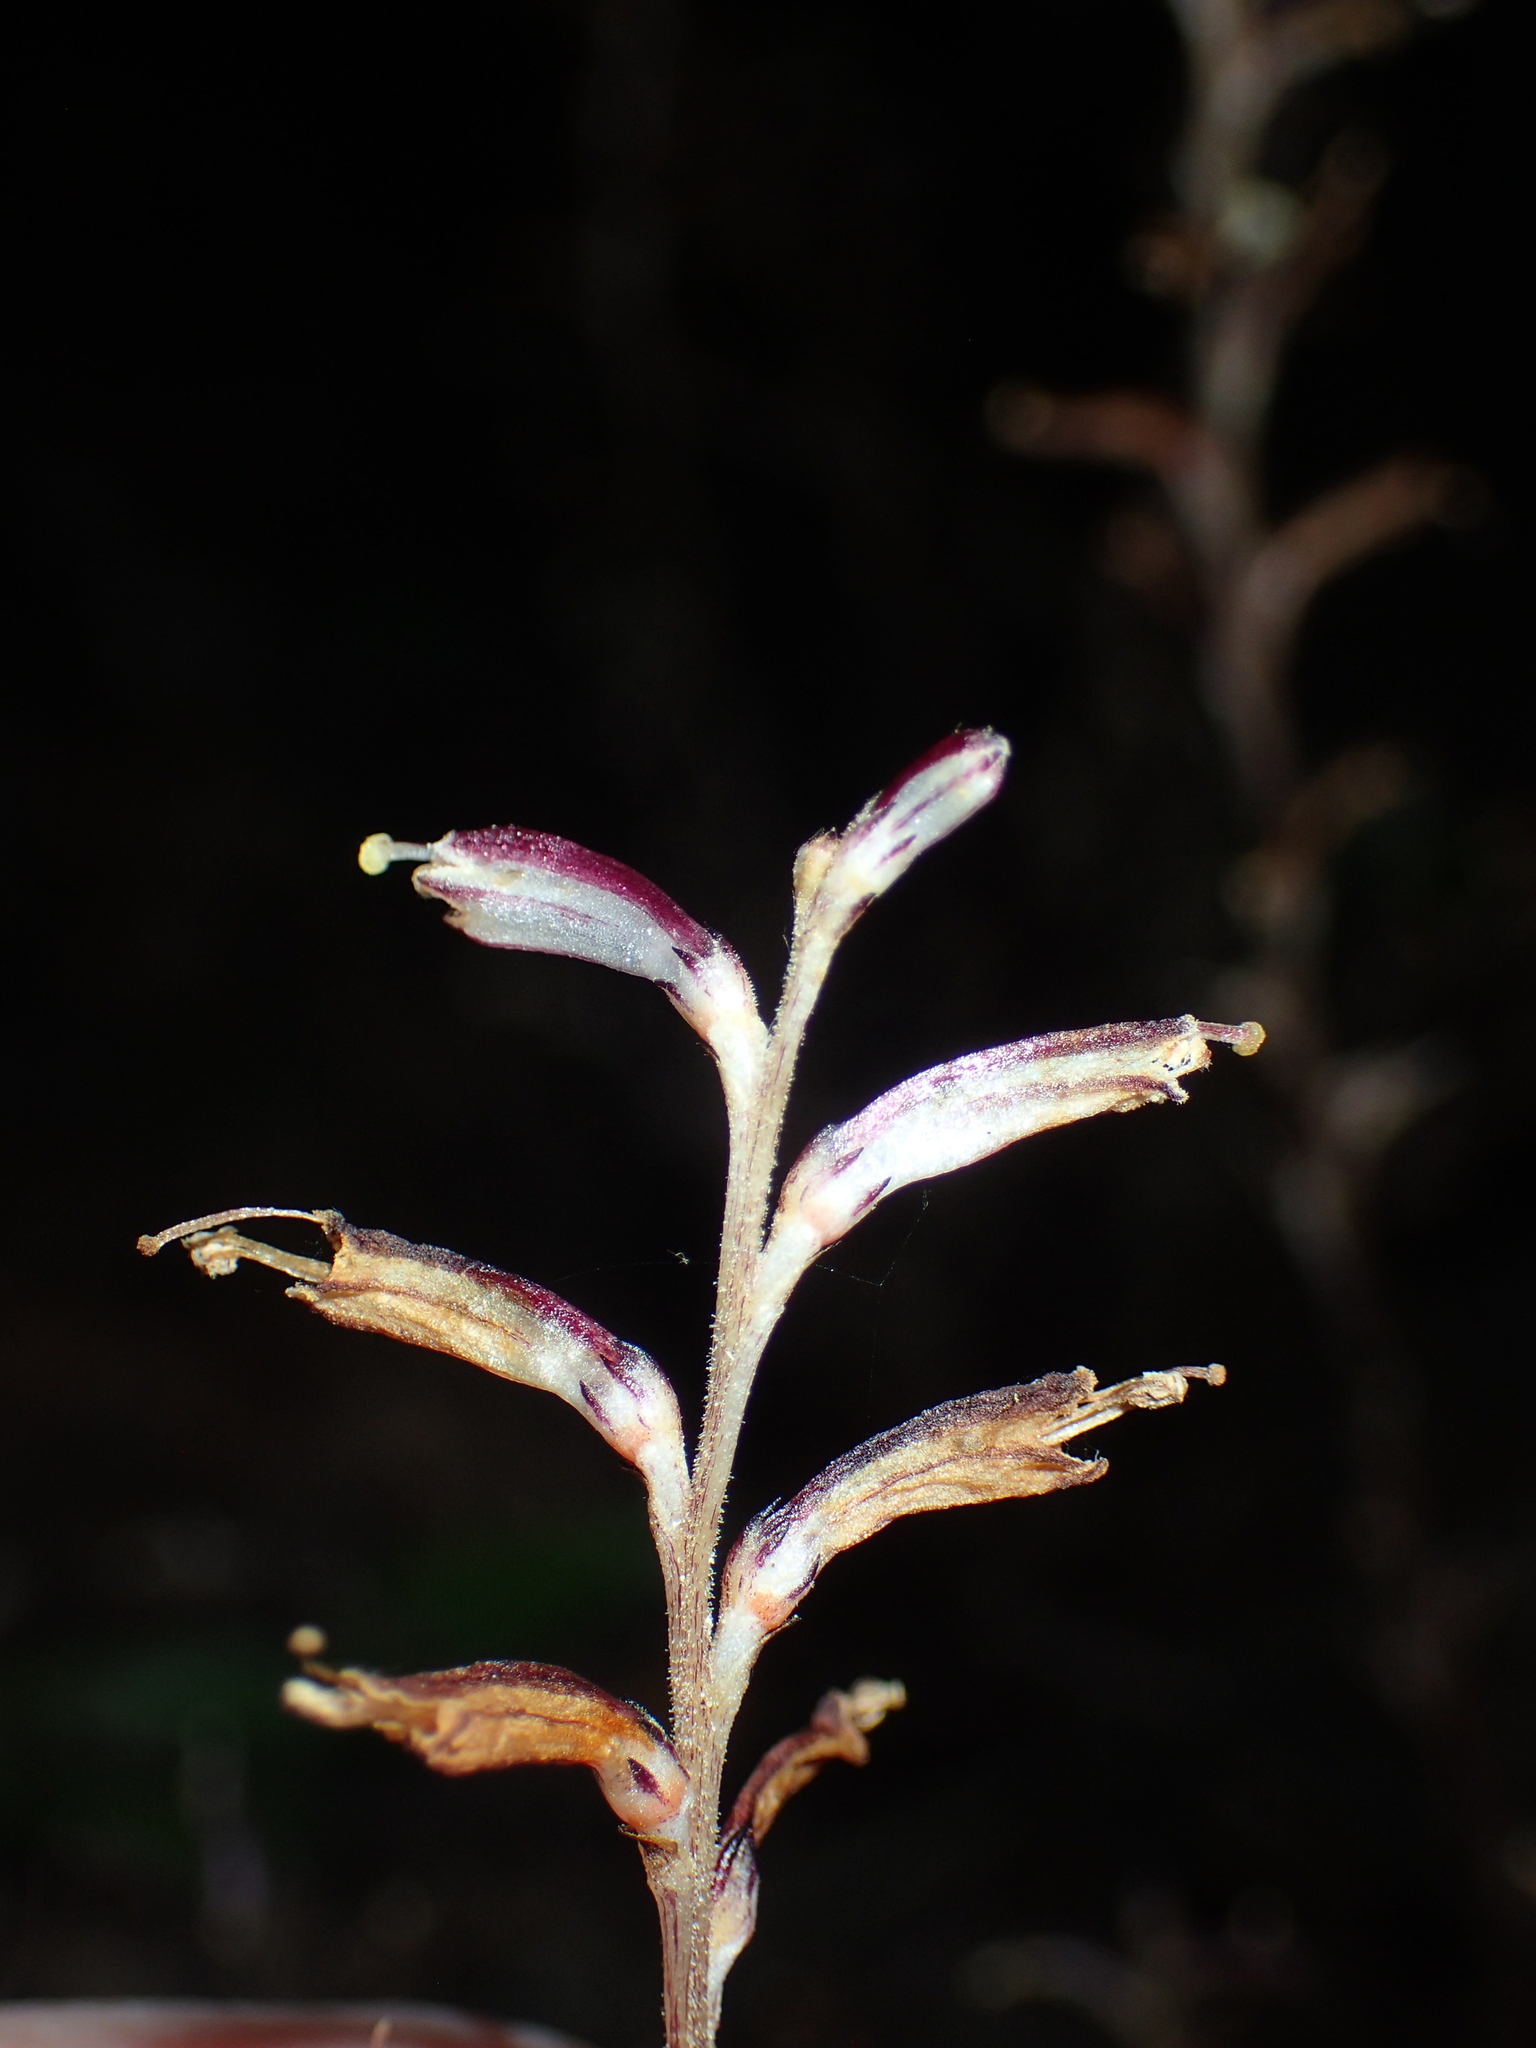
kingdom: Plantae
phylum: Tracheophyta
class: Magnoliopsida
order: Lamiales
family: Orobanchaceae
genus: Epifagus
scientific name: Epifagus virginiana
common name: Beechdrops
